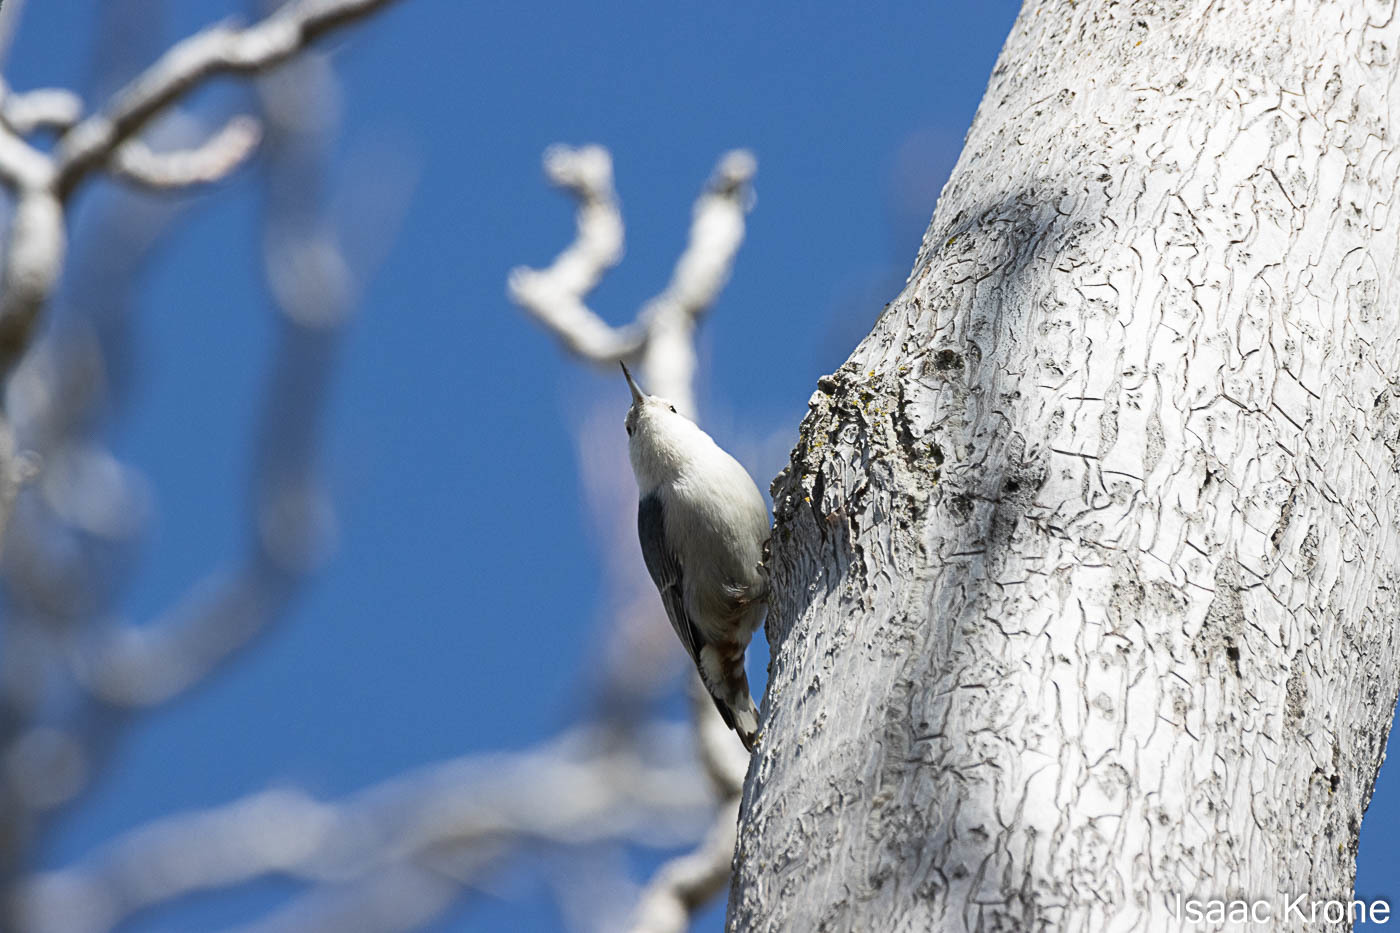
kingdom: Animalia
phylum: Chordata
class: Aves
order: Passeriformes
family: Sittidae
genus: Sitta
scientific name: Sitta carolinensis
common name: White-breasted nuthatch
